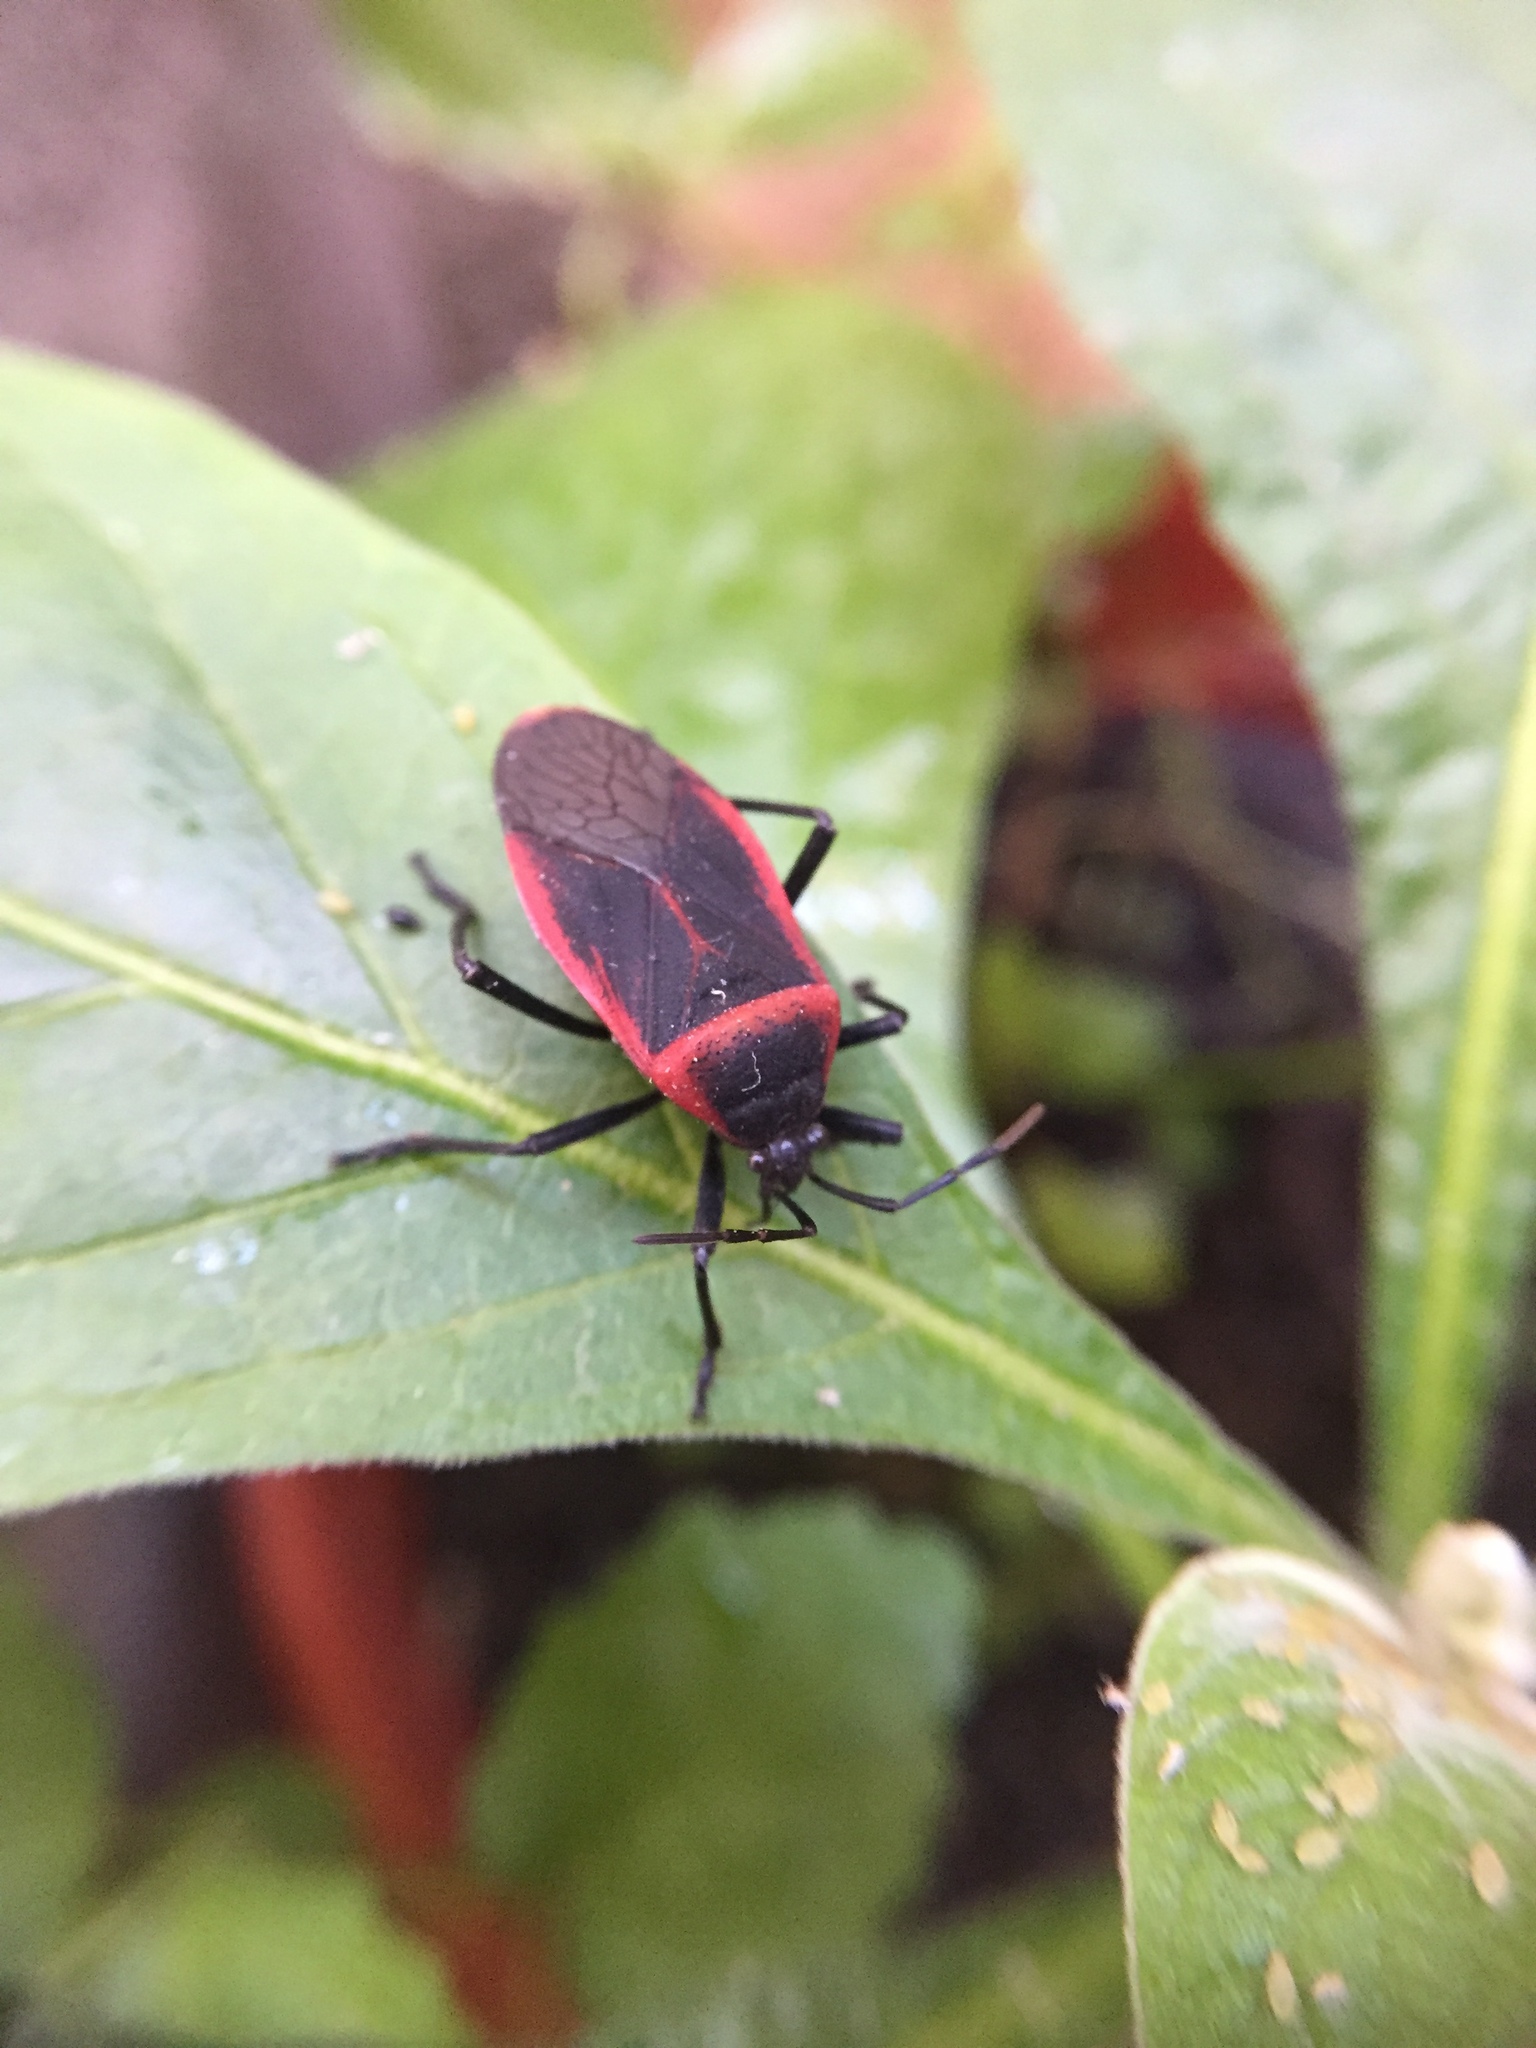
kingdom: Animalia
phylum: Arthropoda
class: Insecta
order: Hemiptera
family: Largidae
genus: Largus
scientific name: Largus rufipennis
